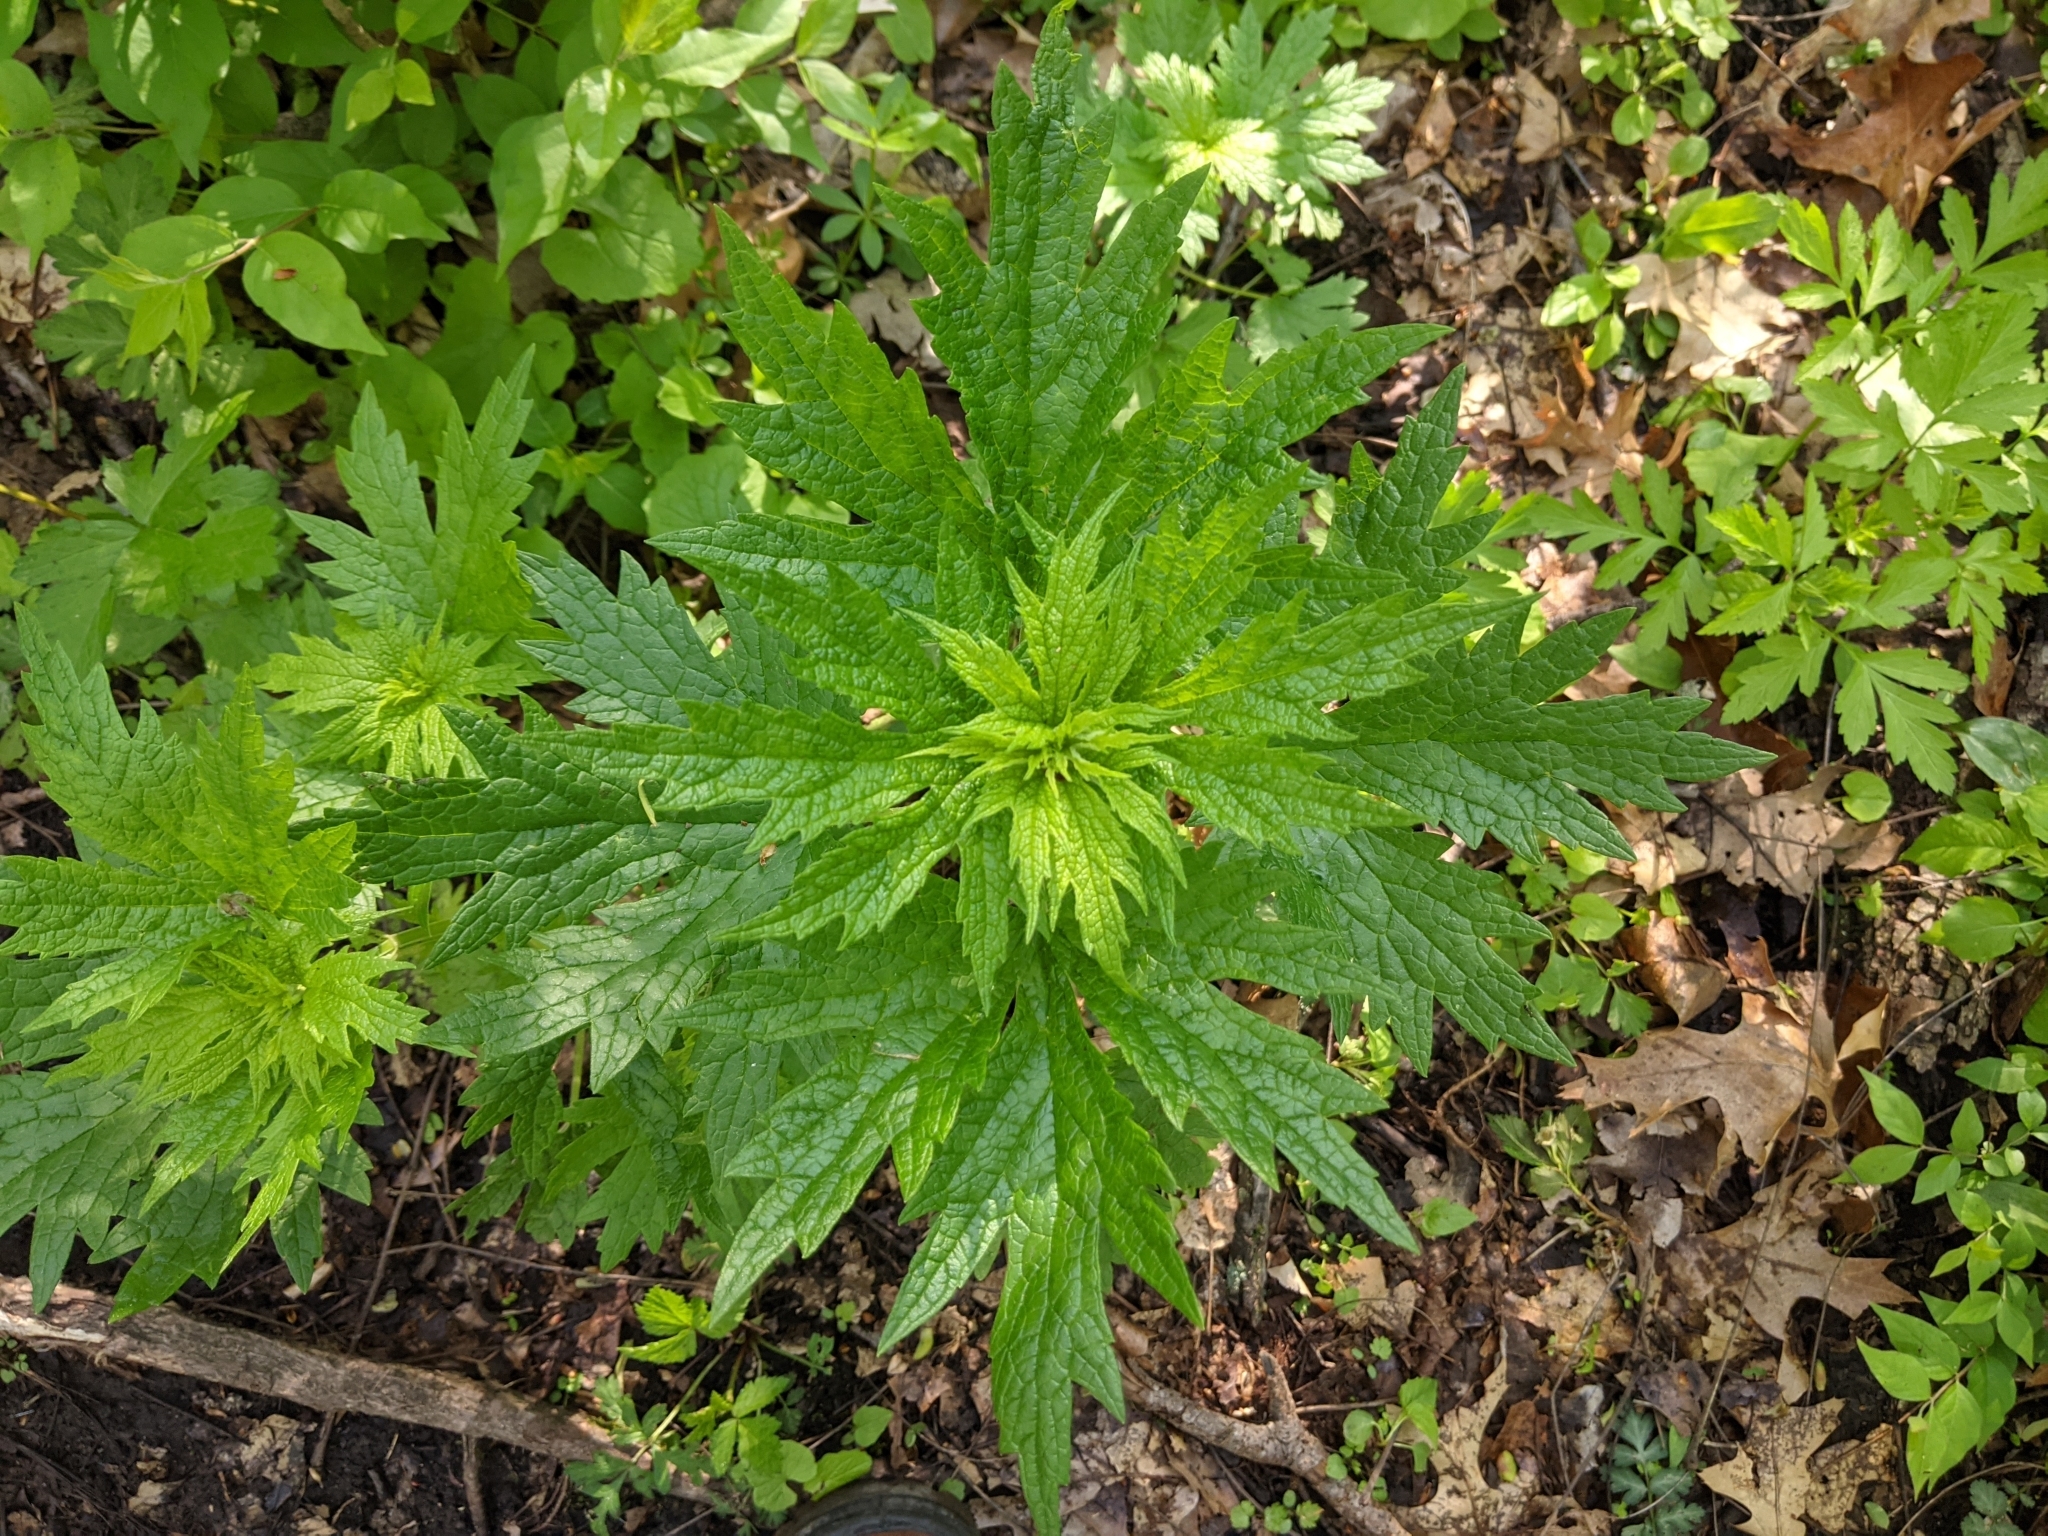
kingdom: Plantae
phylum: Tracheophyta
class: Magnoliopsida
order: Lamiales
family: Lamiaceae
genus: Leonurus
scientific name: Leonurus cardiaca
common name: Motherwort
